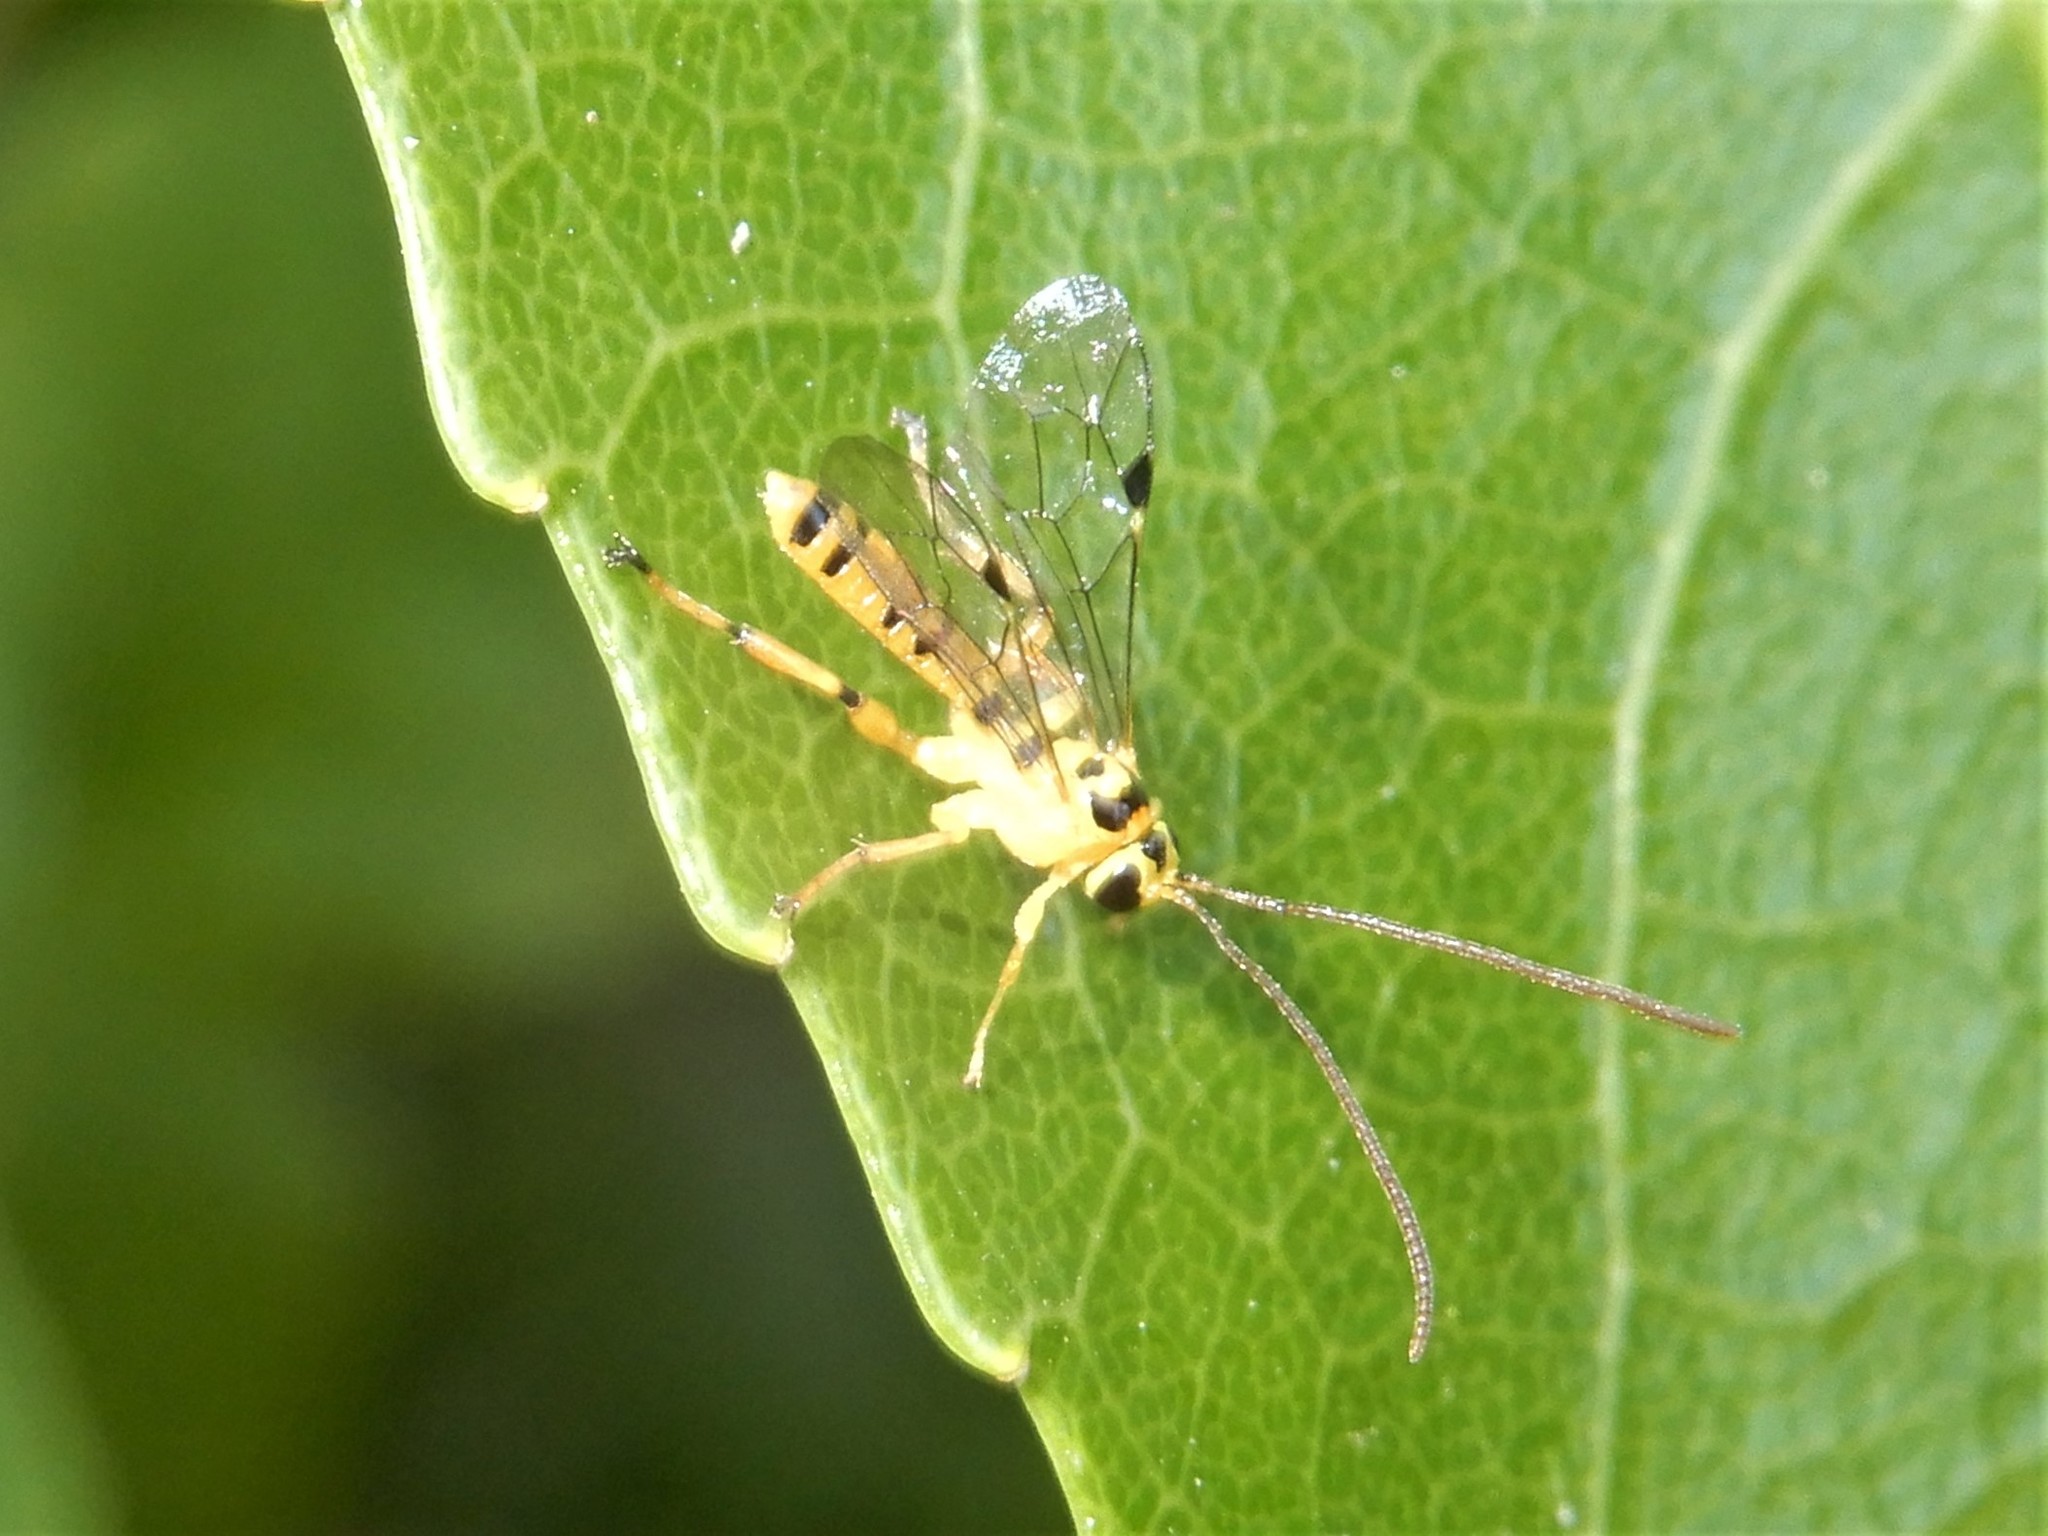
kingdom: Animalia
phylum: Arthropoda
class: Insecta
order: Hymenoptera
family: Ichneumonidae
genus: Xanthopimpla
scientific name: Xanthopimpla rhopaloceros
